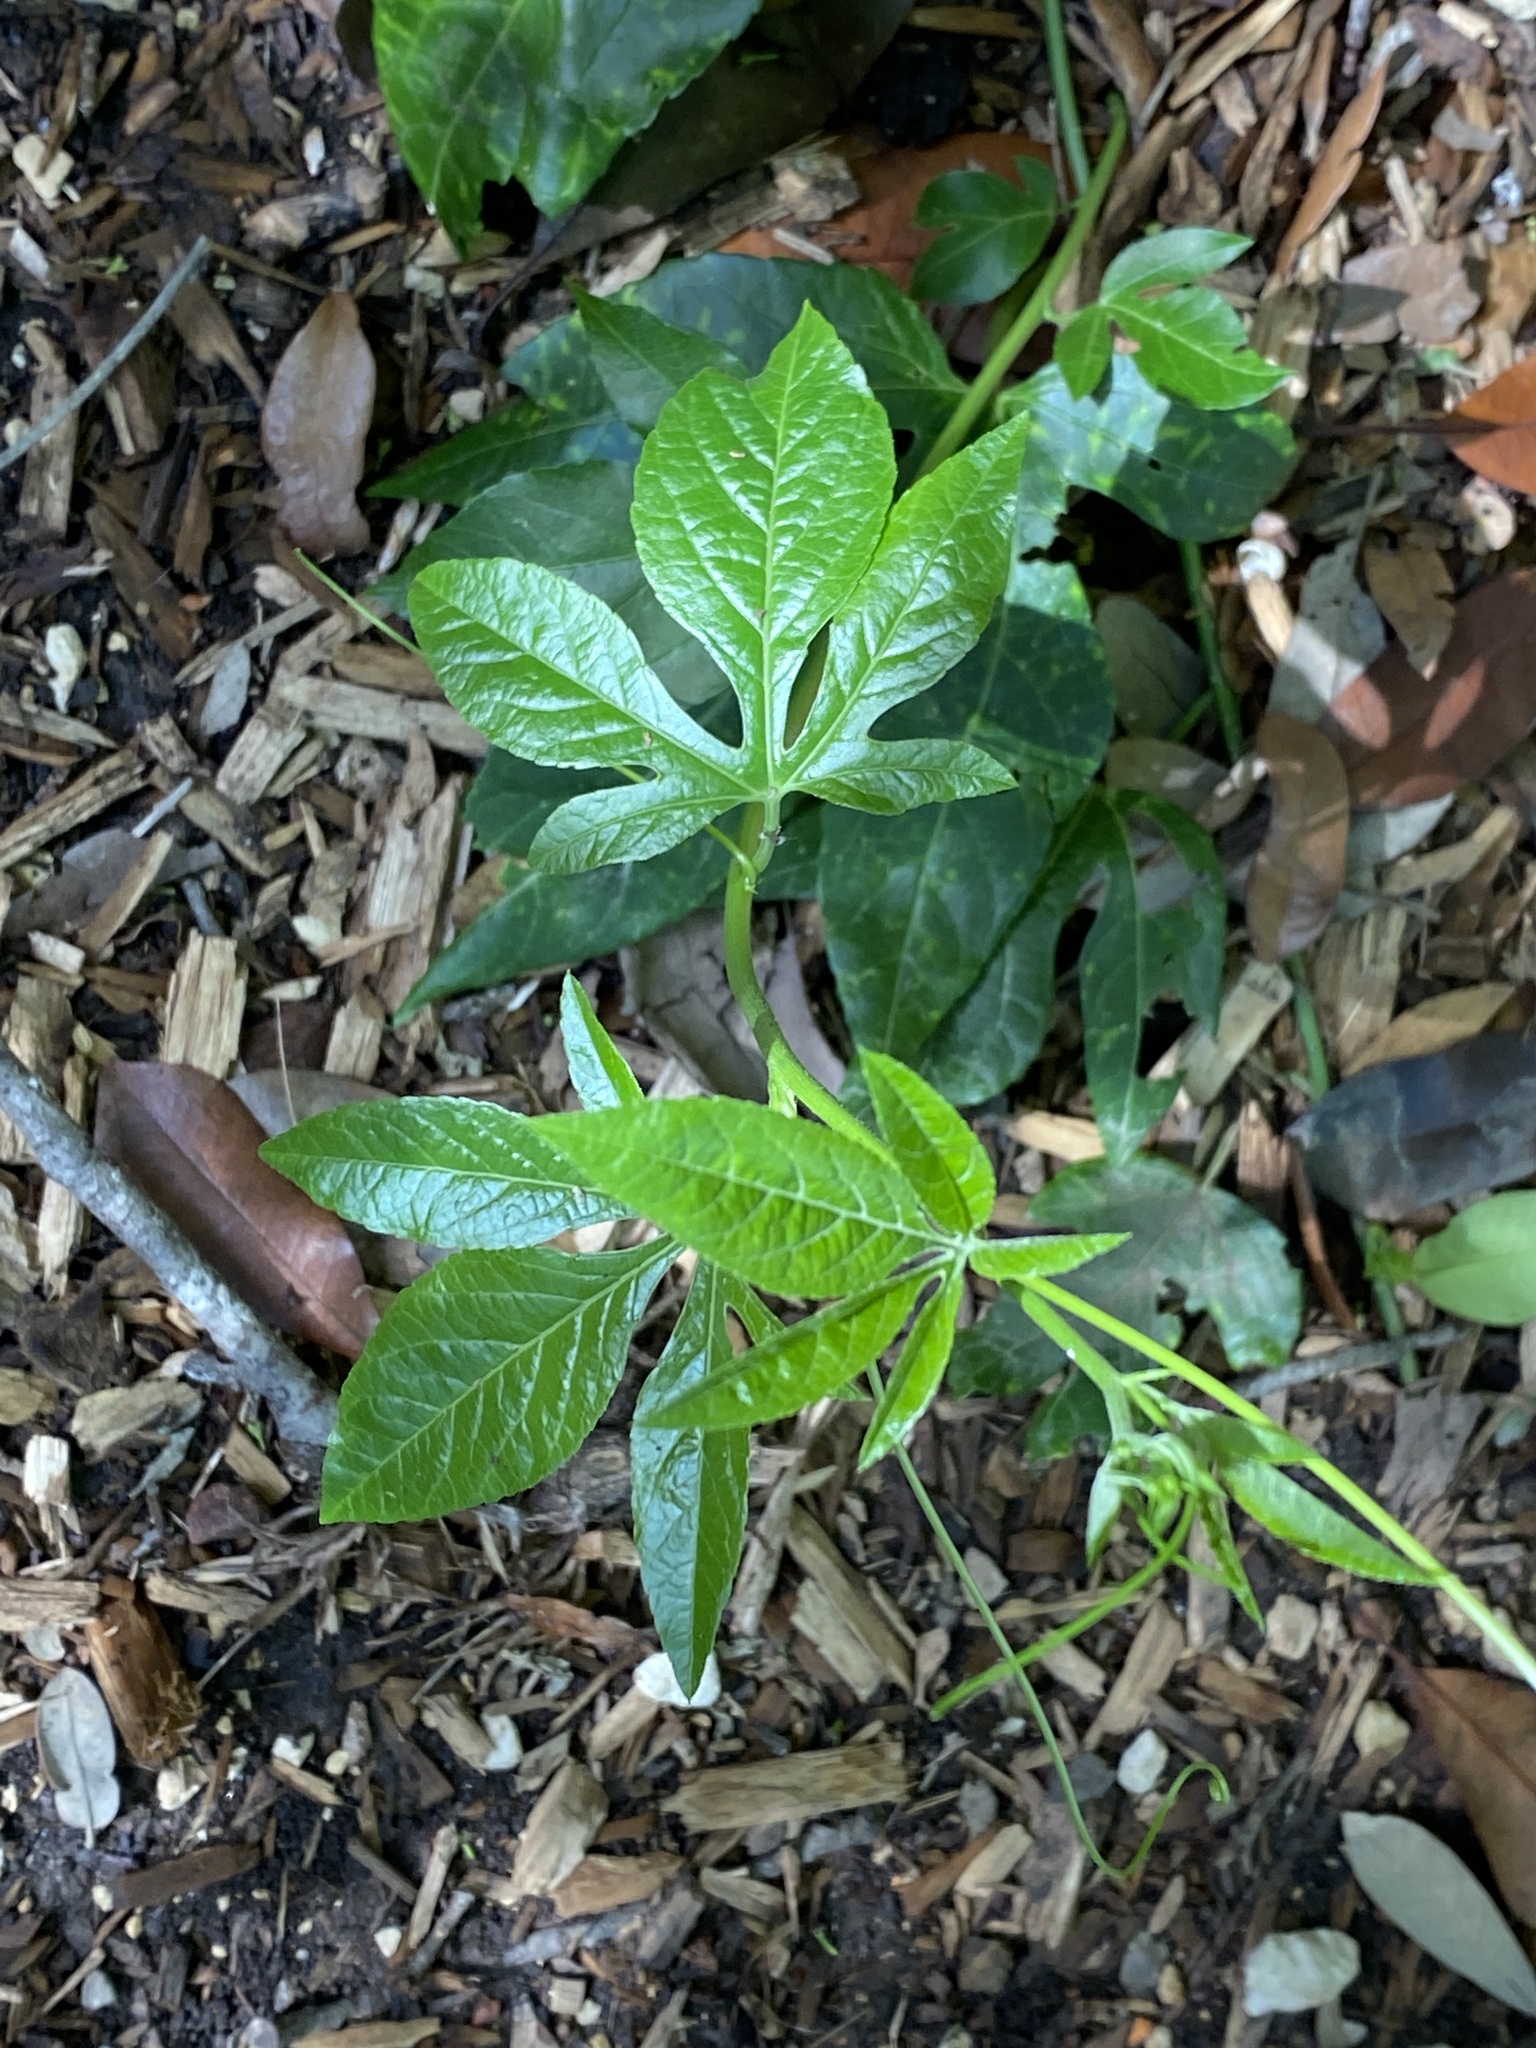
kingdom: Plantae
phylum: Tracheophyta
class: Magnoliopsida
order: Malpighiales
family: Passifloraceae
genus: Passiflora
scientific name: Passiflora
